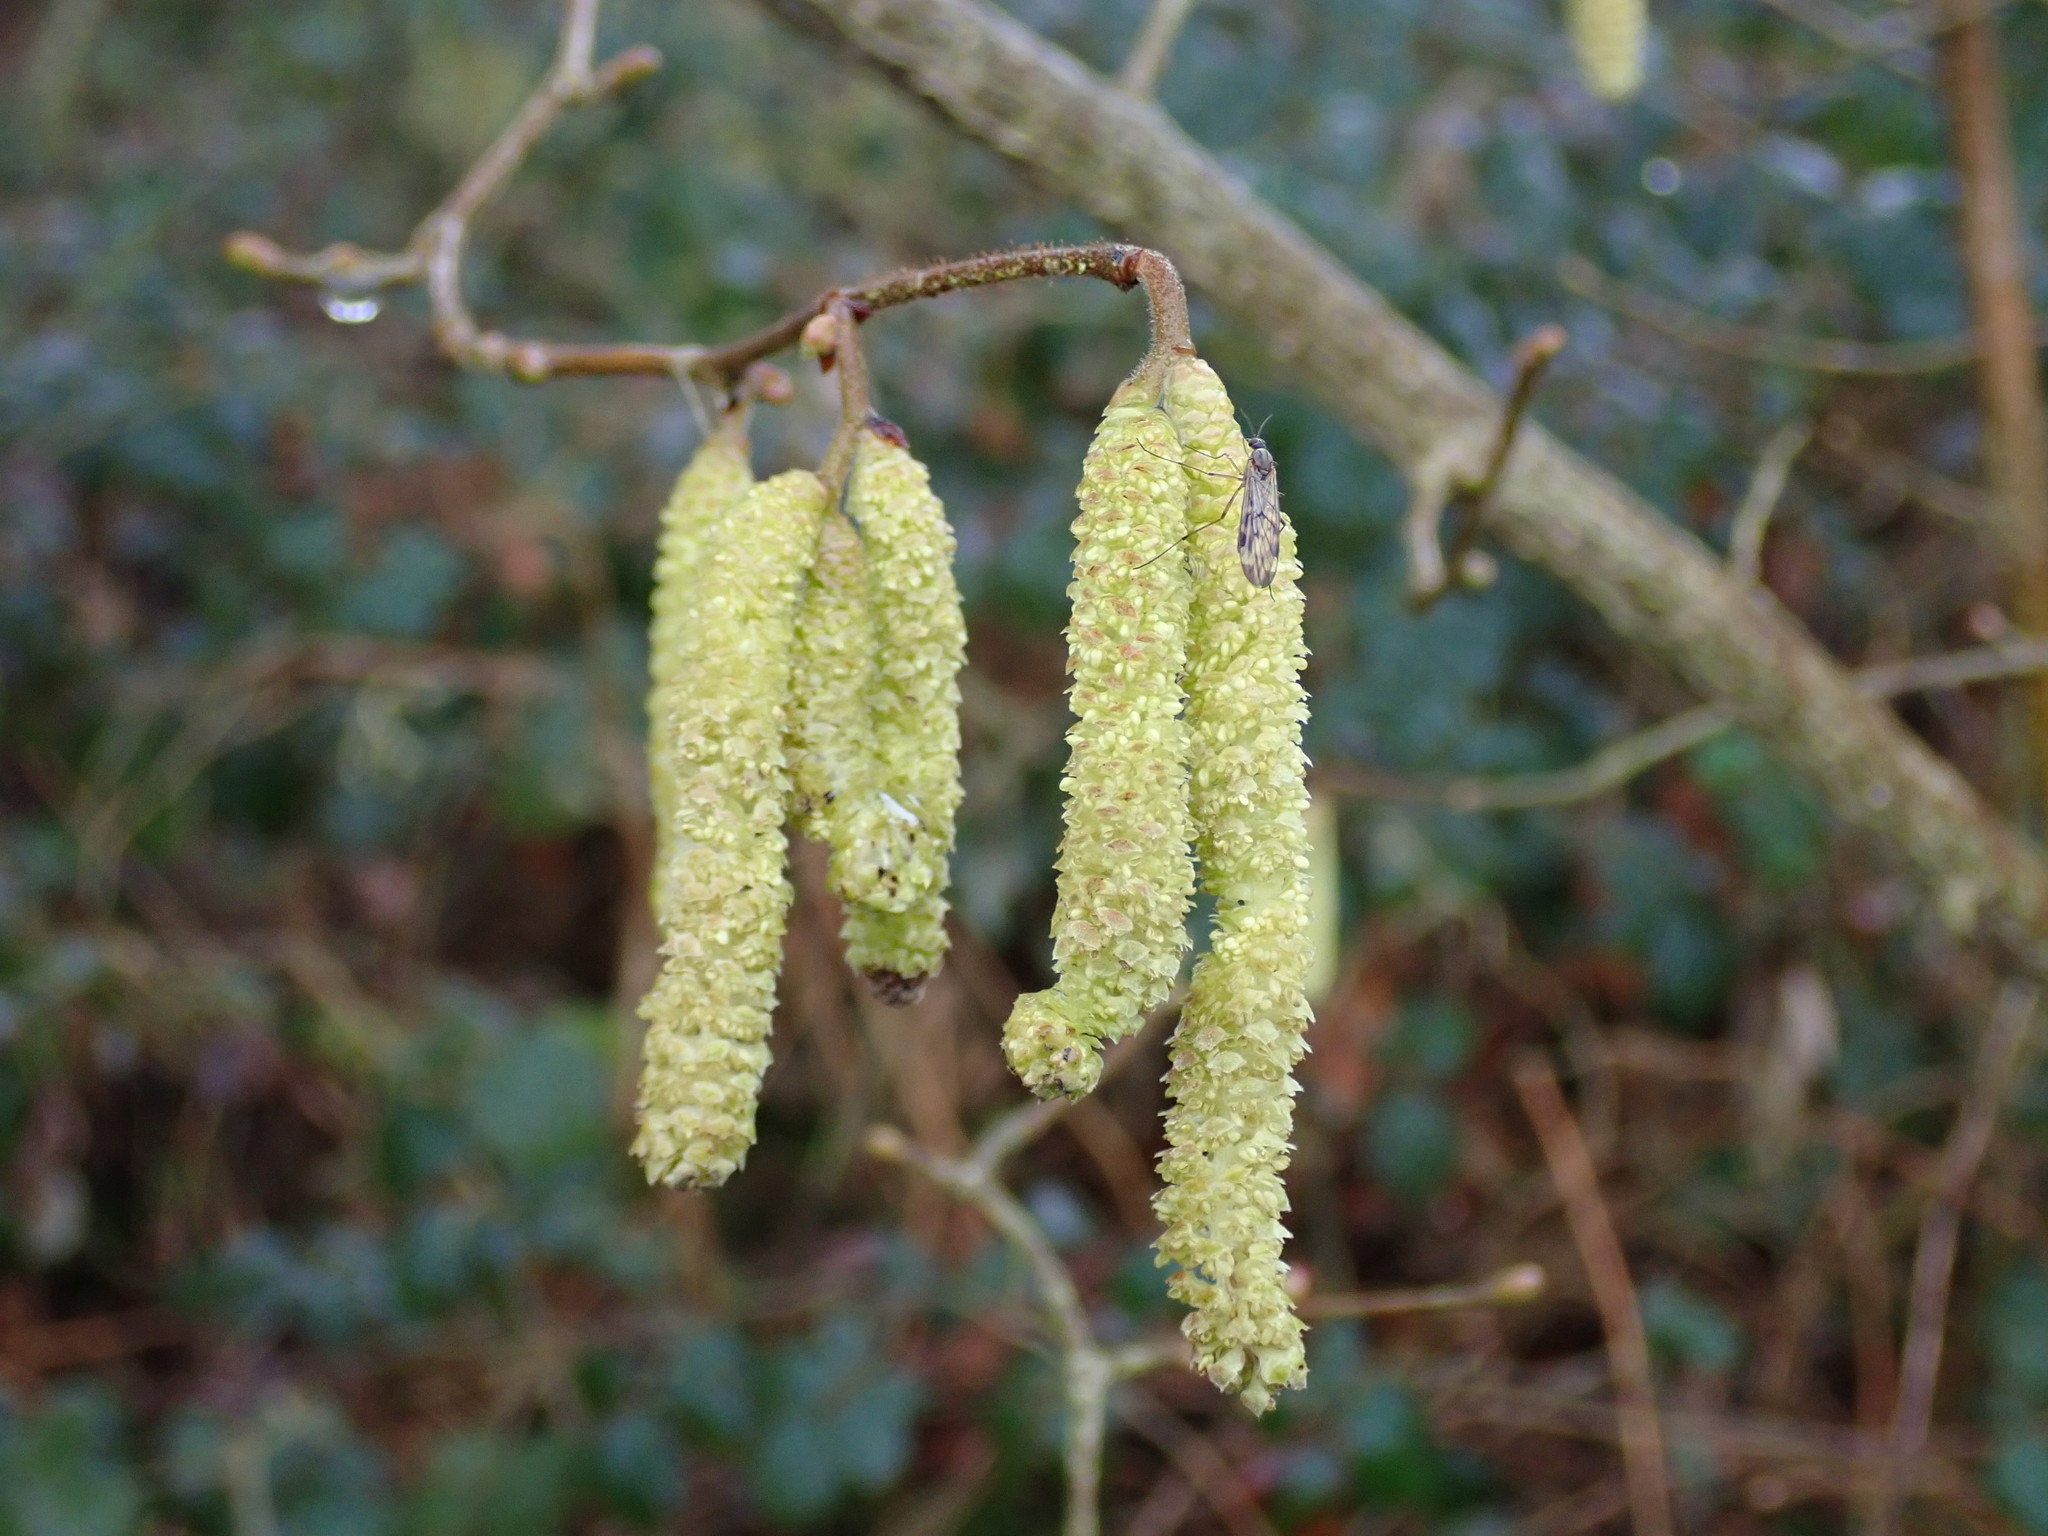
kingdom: Plantae
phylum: Tracheophyta
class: Magnoliopsida
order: Fagales
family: Betulaceae
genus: Corylus
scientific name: Corylus avellana
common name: European hazel
